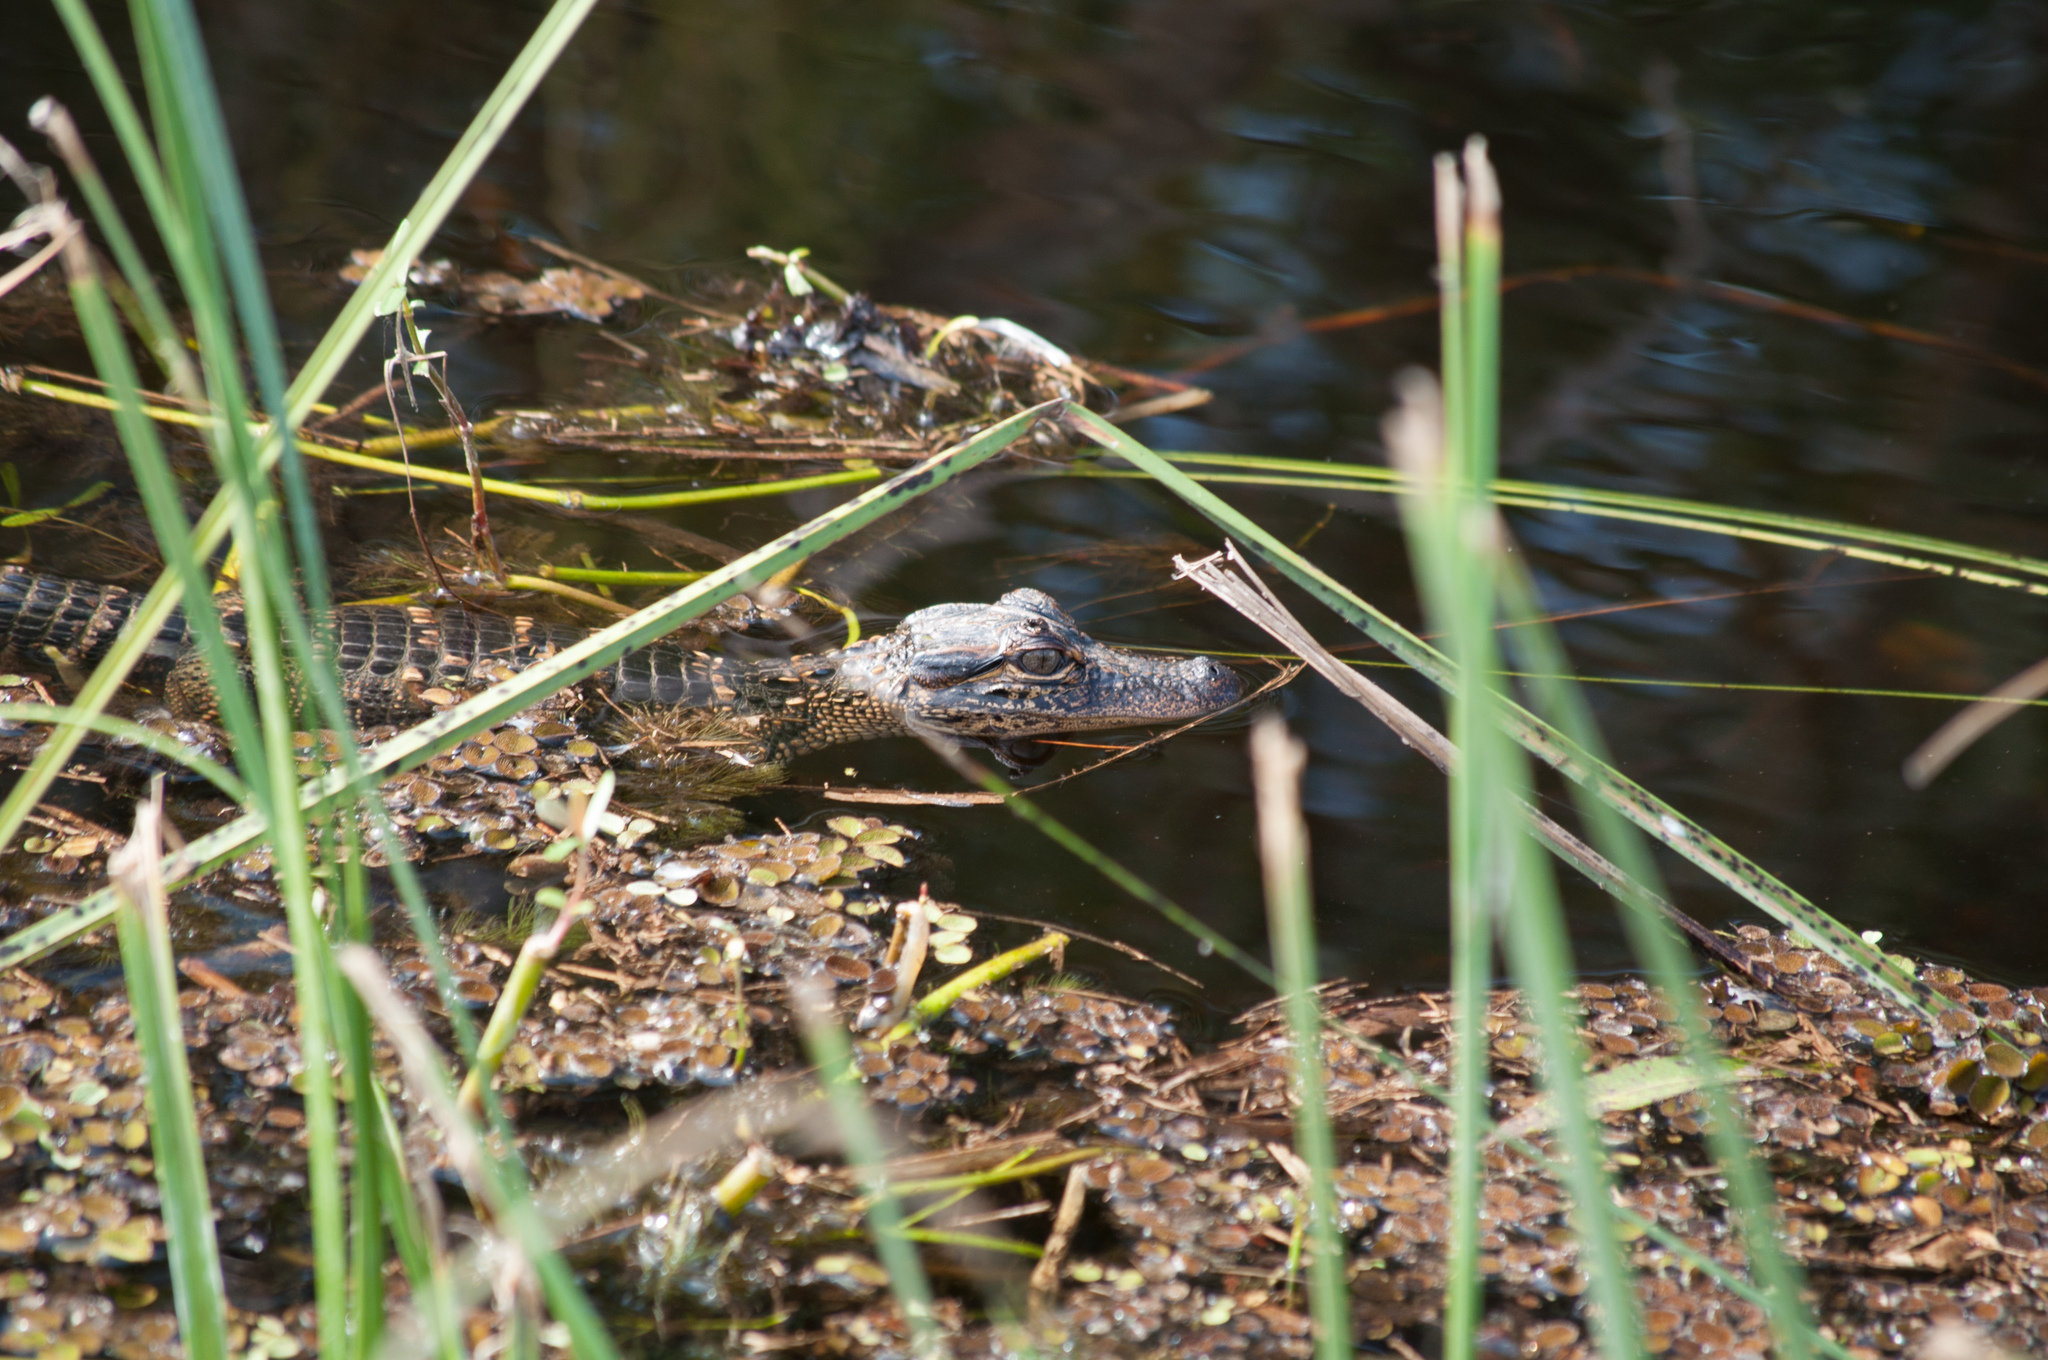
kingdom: Animalia
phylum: Chordata
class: Crocodylia
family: Alligatoridae
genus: Alligator
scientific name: Alligator mississippiensis
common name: American alligator
